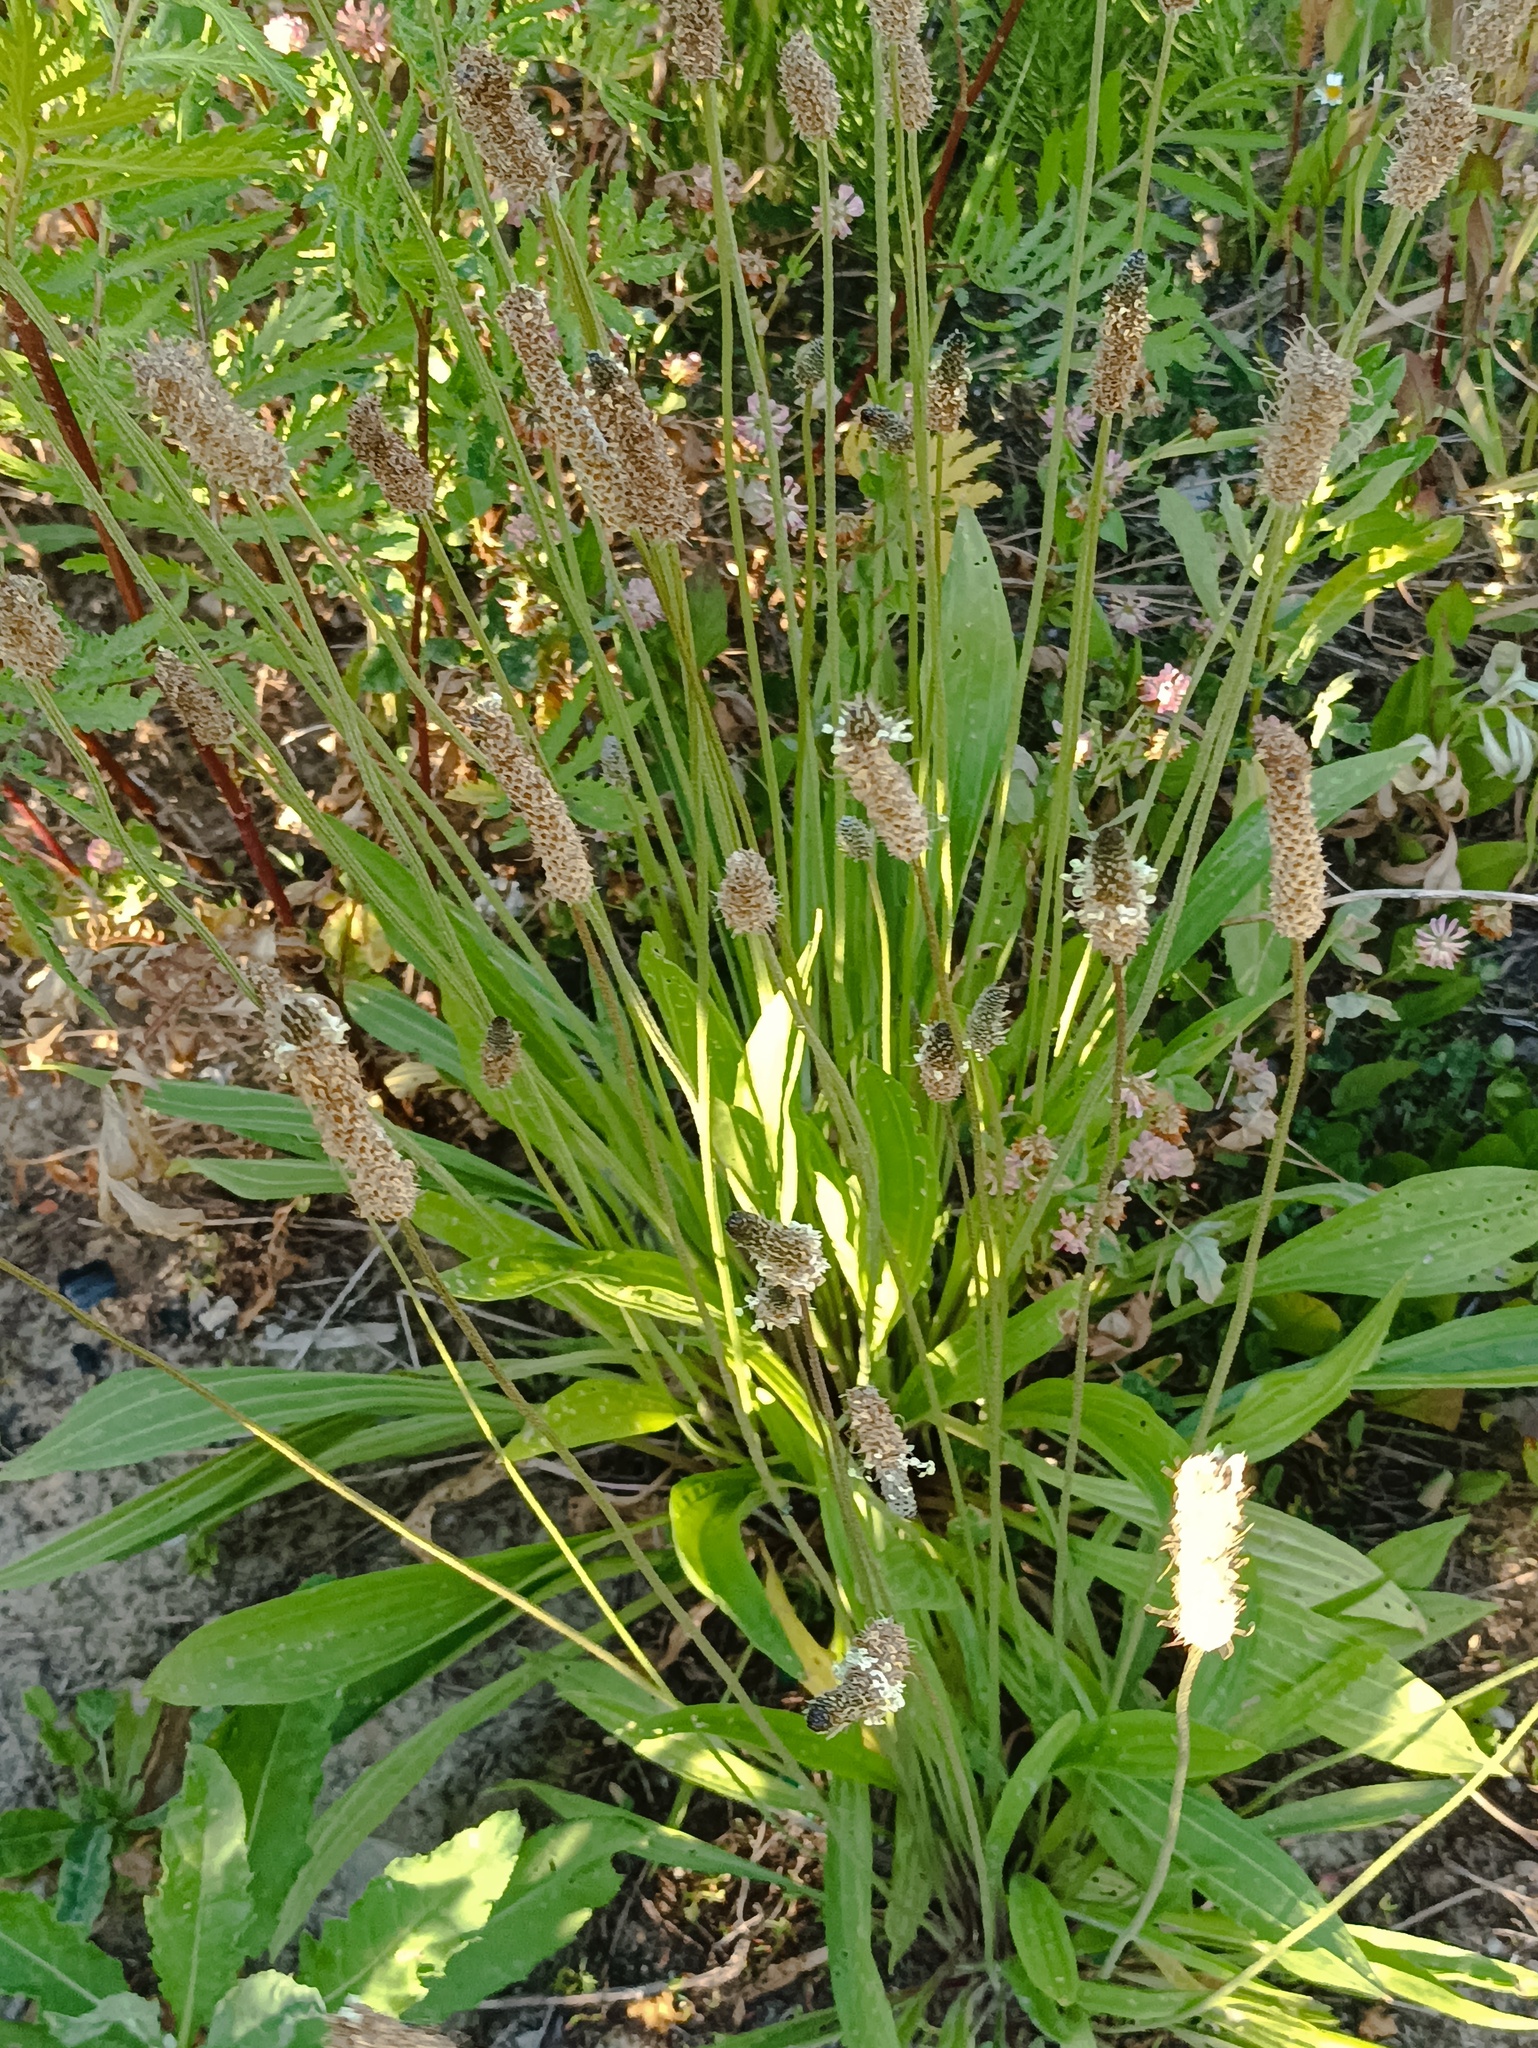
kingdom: Plantae
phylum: Tracheophyta
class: Magnoliopsida
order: Lamiales
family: Plantaginaceae
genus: Plantago
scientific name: Plantago lanceolata
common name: Ribwort plantain
